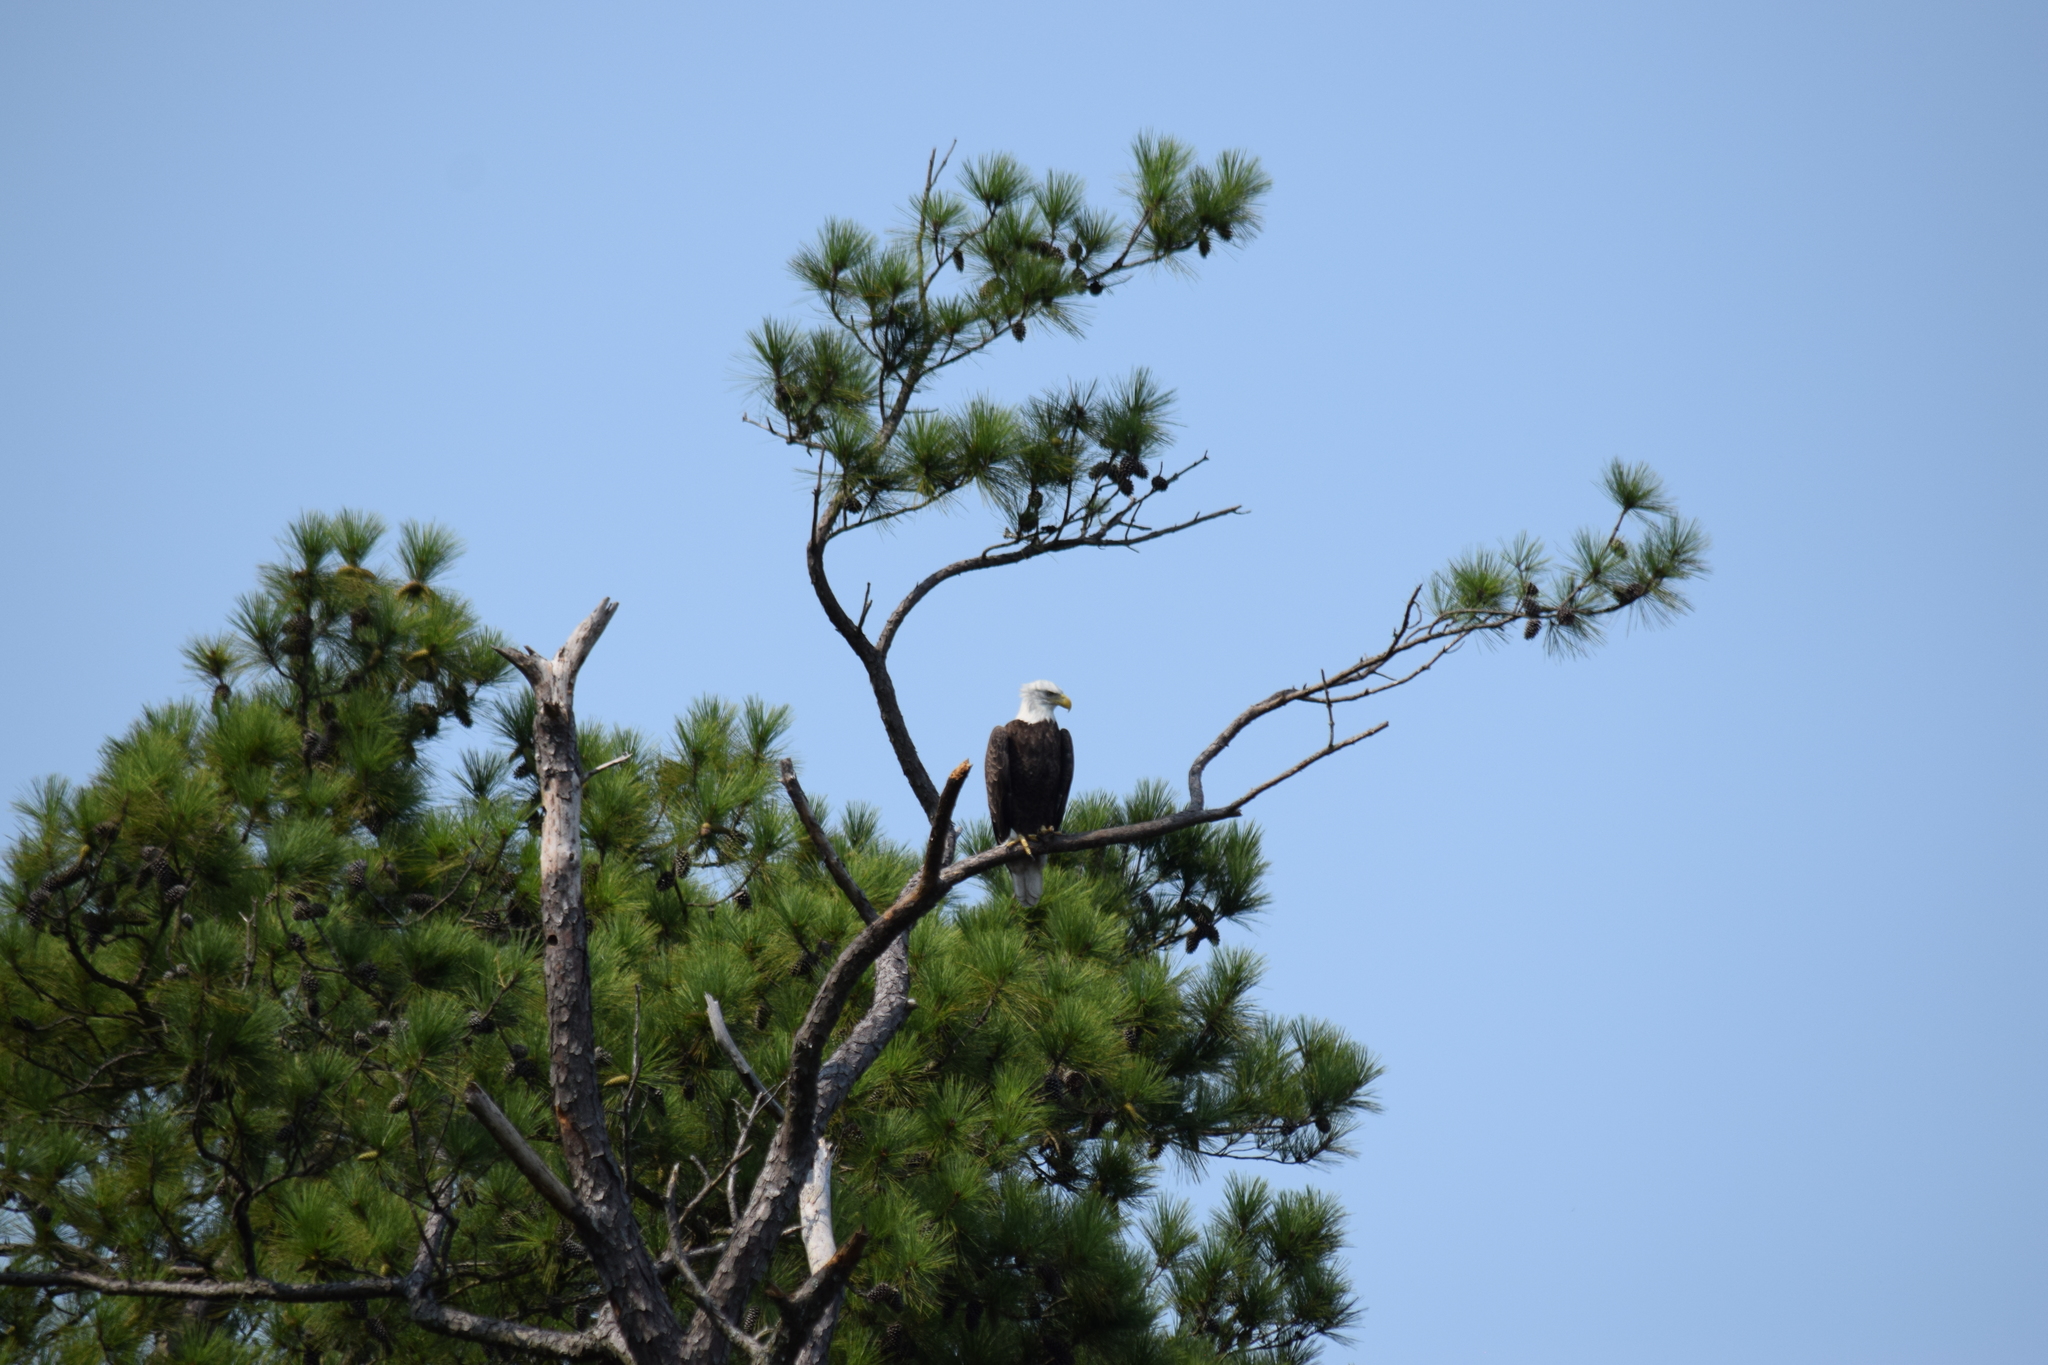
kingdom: Animalia
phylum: Chordata
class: Aves
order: Accipitriformes
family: Accipitridae
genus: Haliaeetus
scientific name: Haliaeetus leucocephalus
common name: Bald eagle
